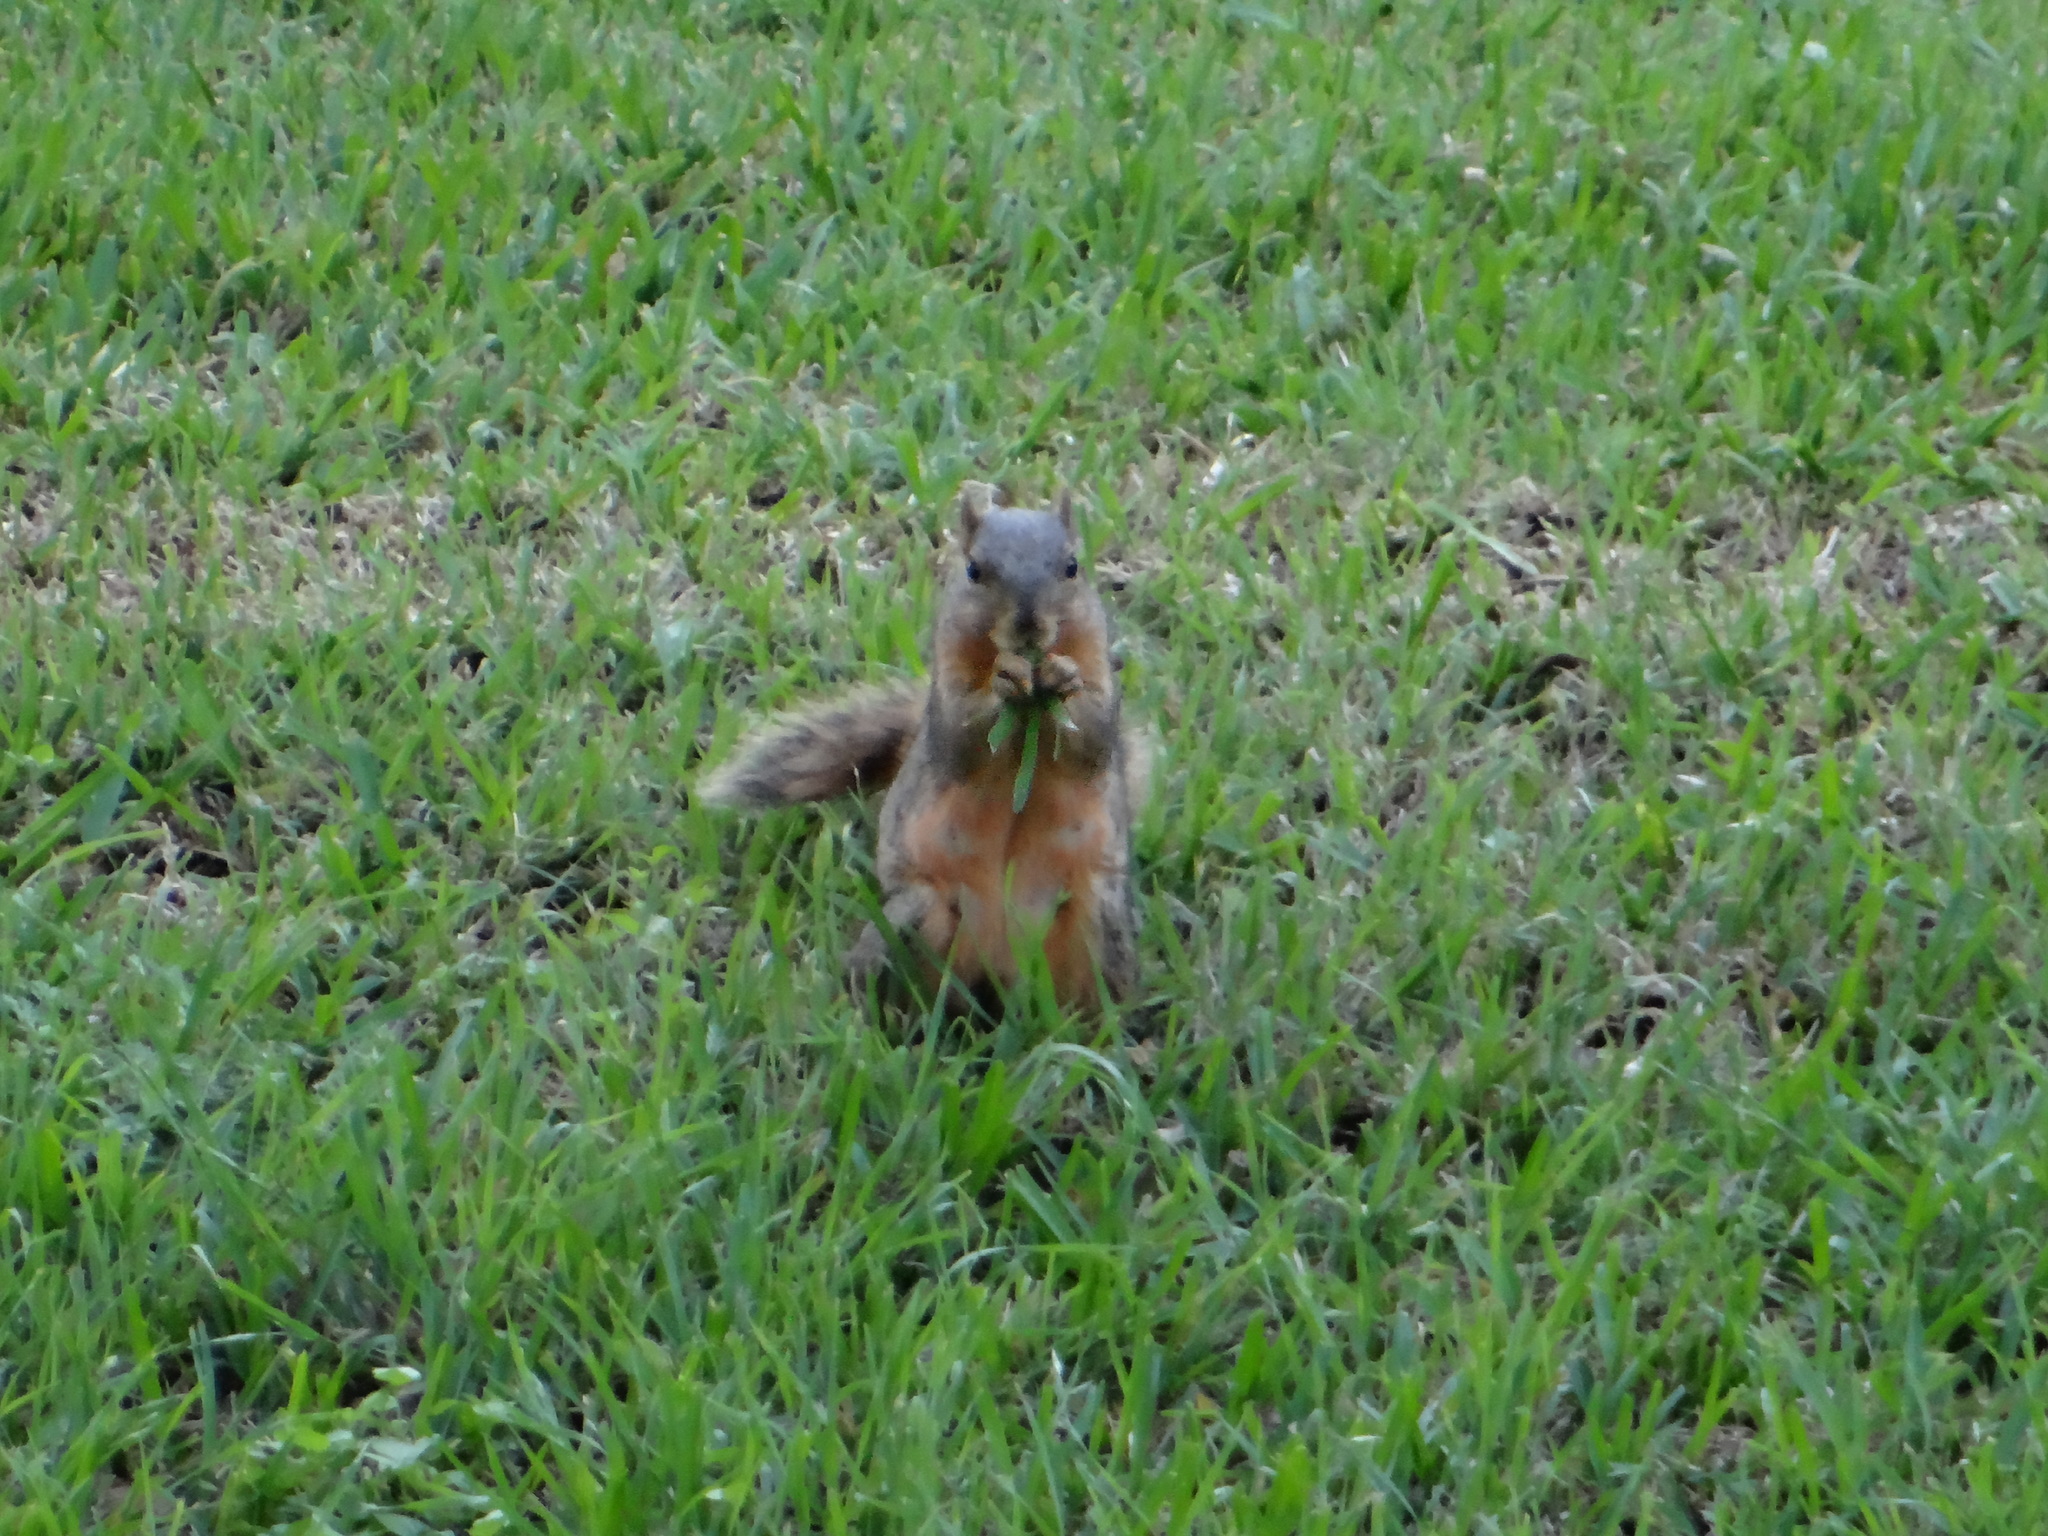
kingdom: Animalia
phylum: Chordata
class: Mammalia
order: Rodentia
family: Sciuridae
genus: Sciurus
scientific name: Sciurus niger
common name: Fox squirrel
